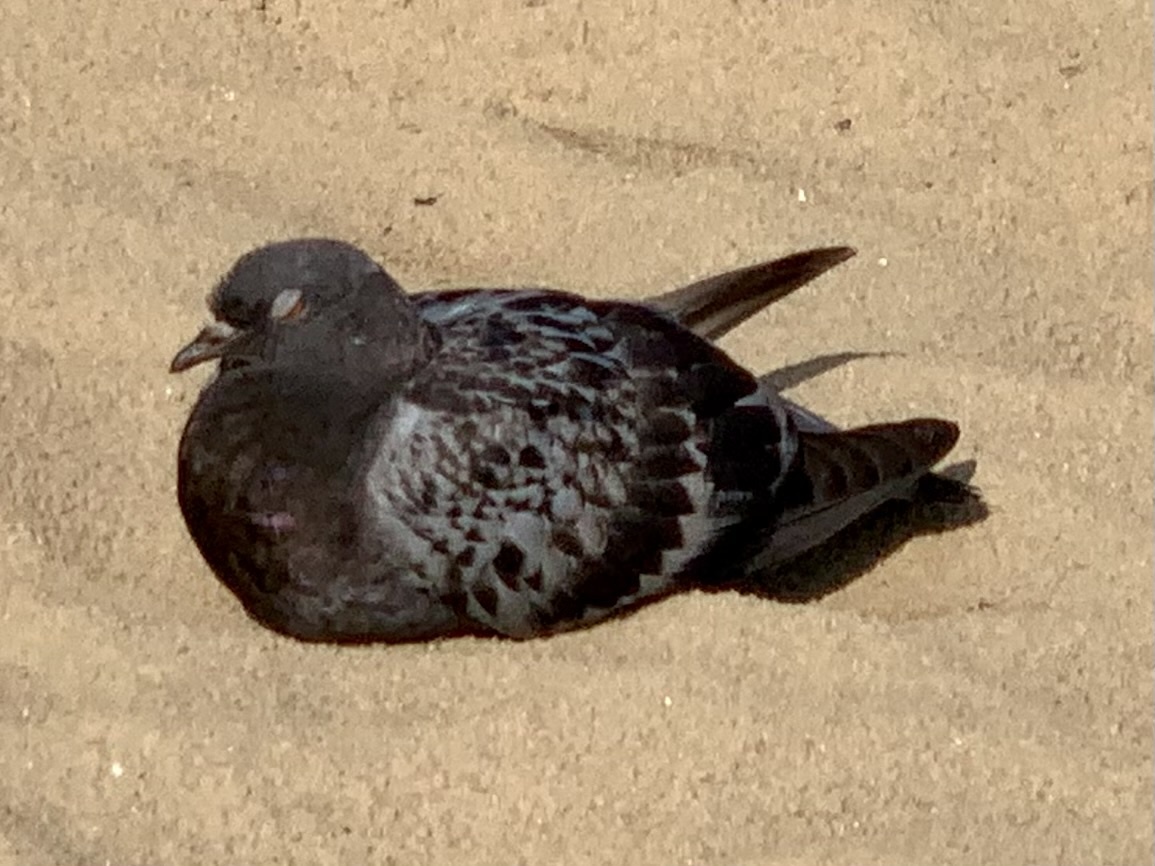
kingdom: Animalia
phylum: Chordata
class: Aves
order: Columbiformes
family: Columbidae
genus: Columba
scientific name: Columba livia
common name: Rock pigeon
